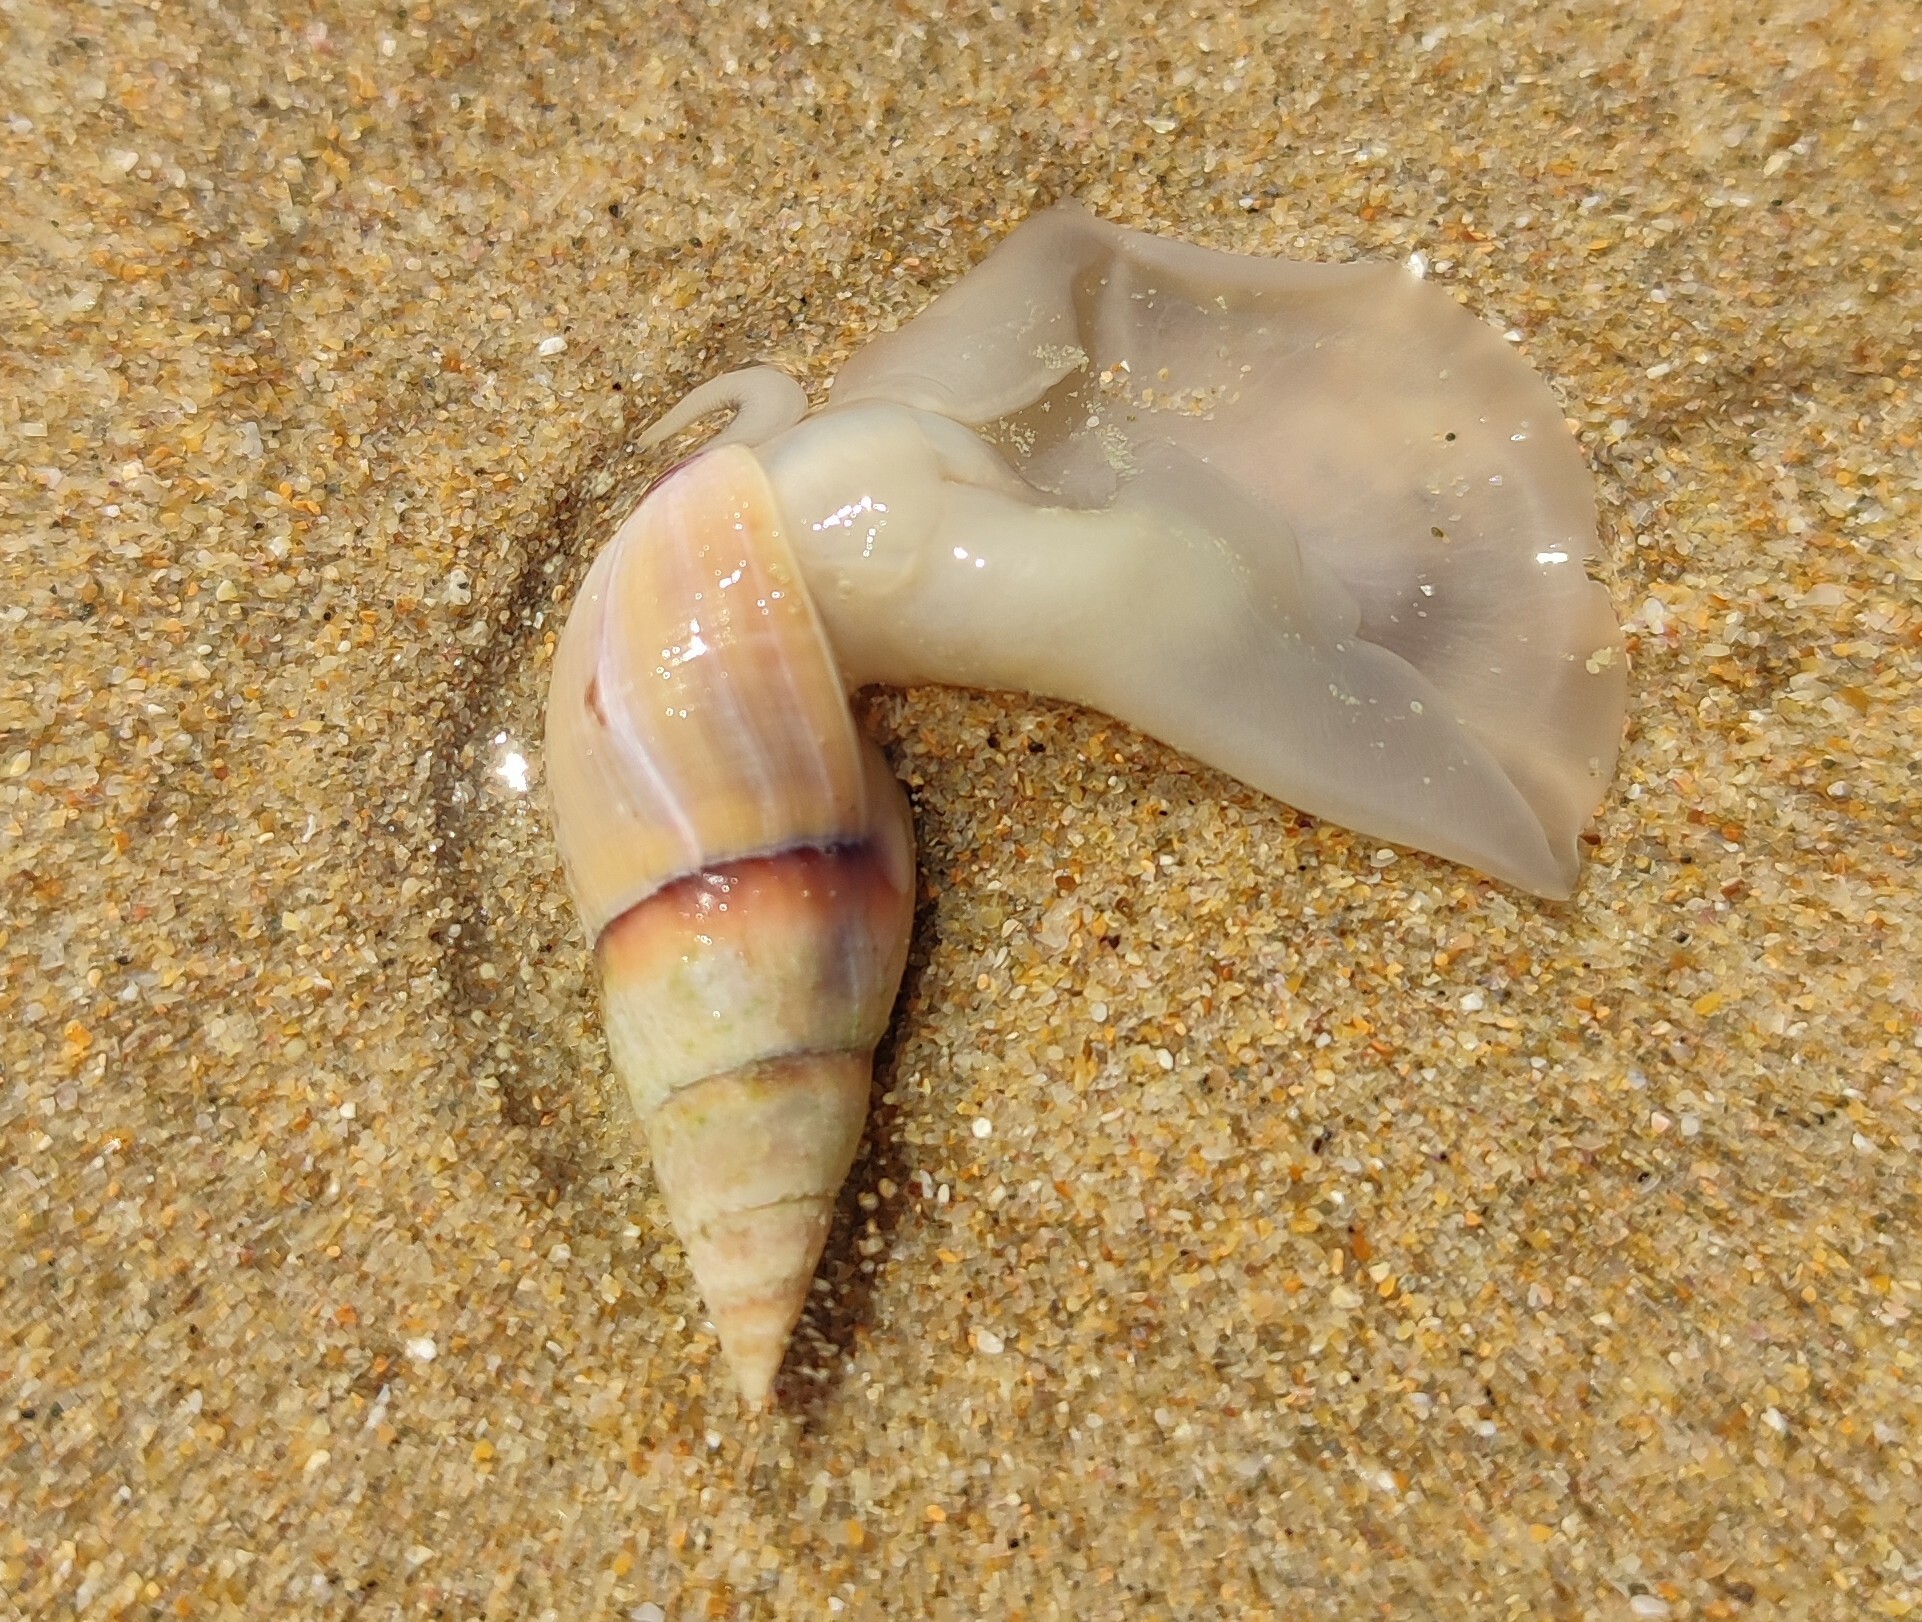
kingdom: Animalia
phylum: Mollusca
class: Gastropoda
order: Neogastropoda
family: Nassariidae
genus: Bullia
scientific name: Bullia rhodostoma
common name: Smooth plough shell
